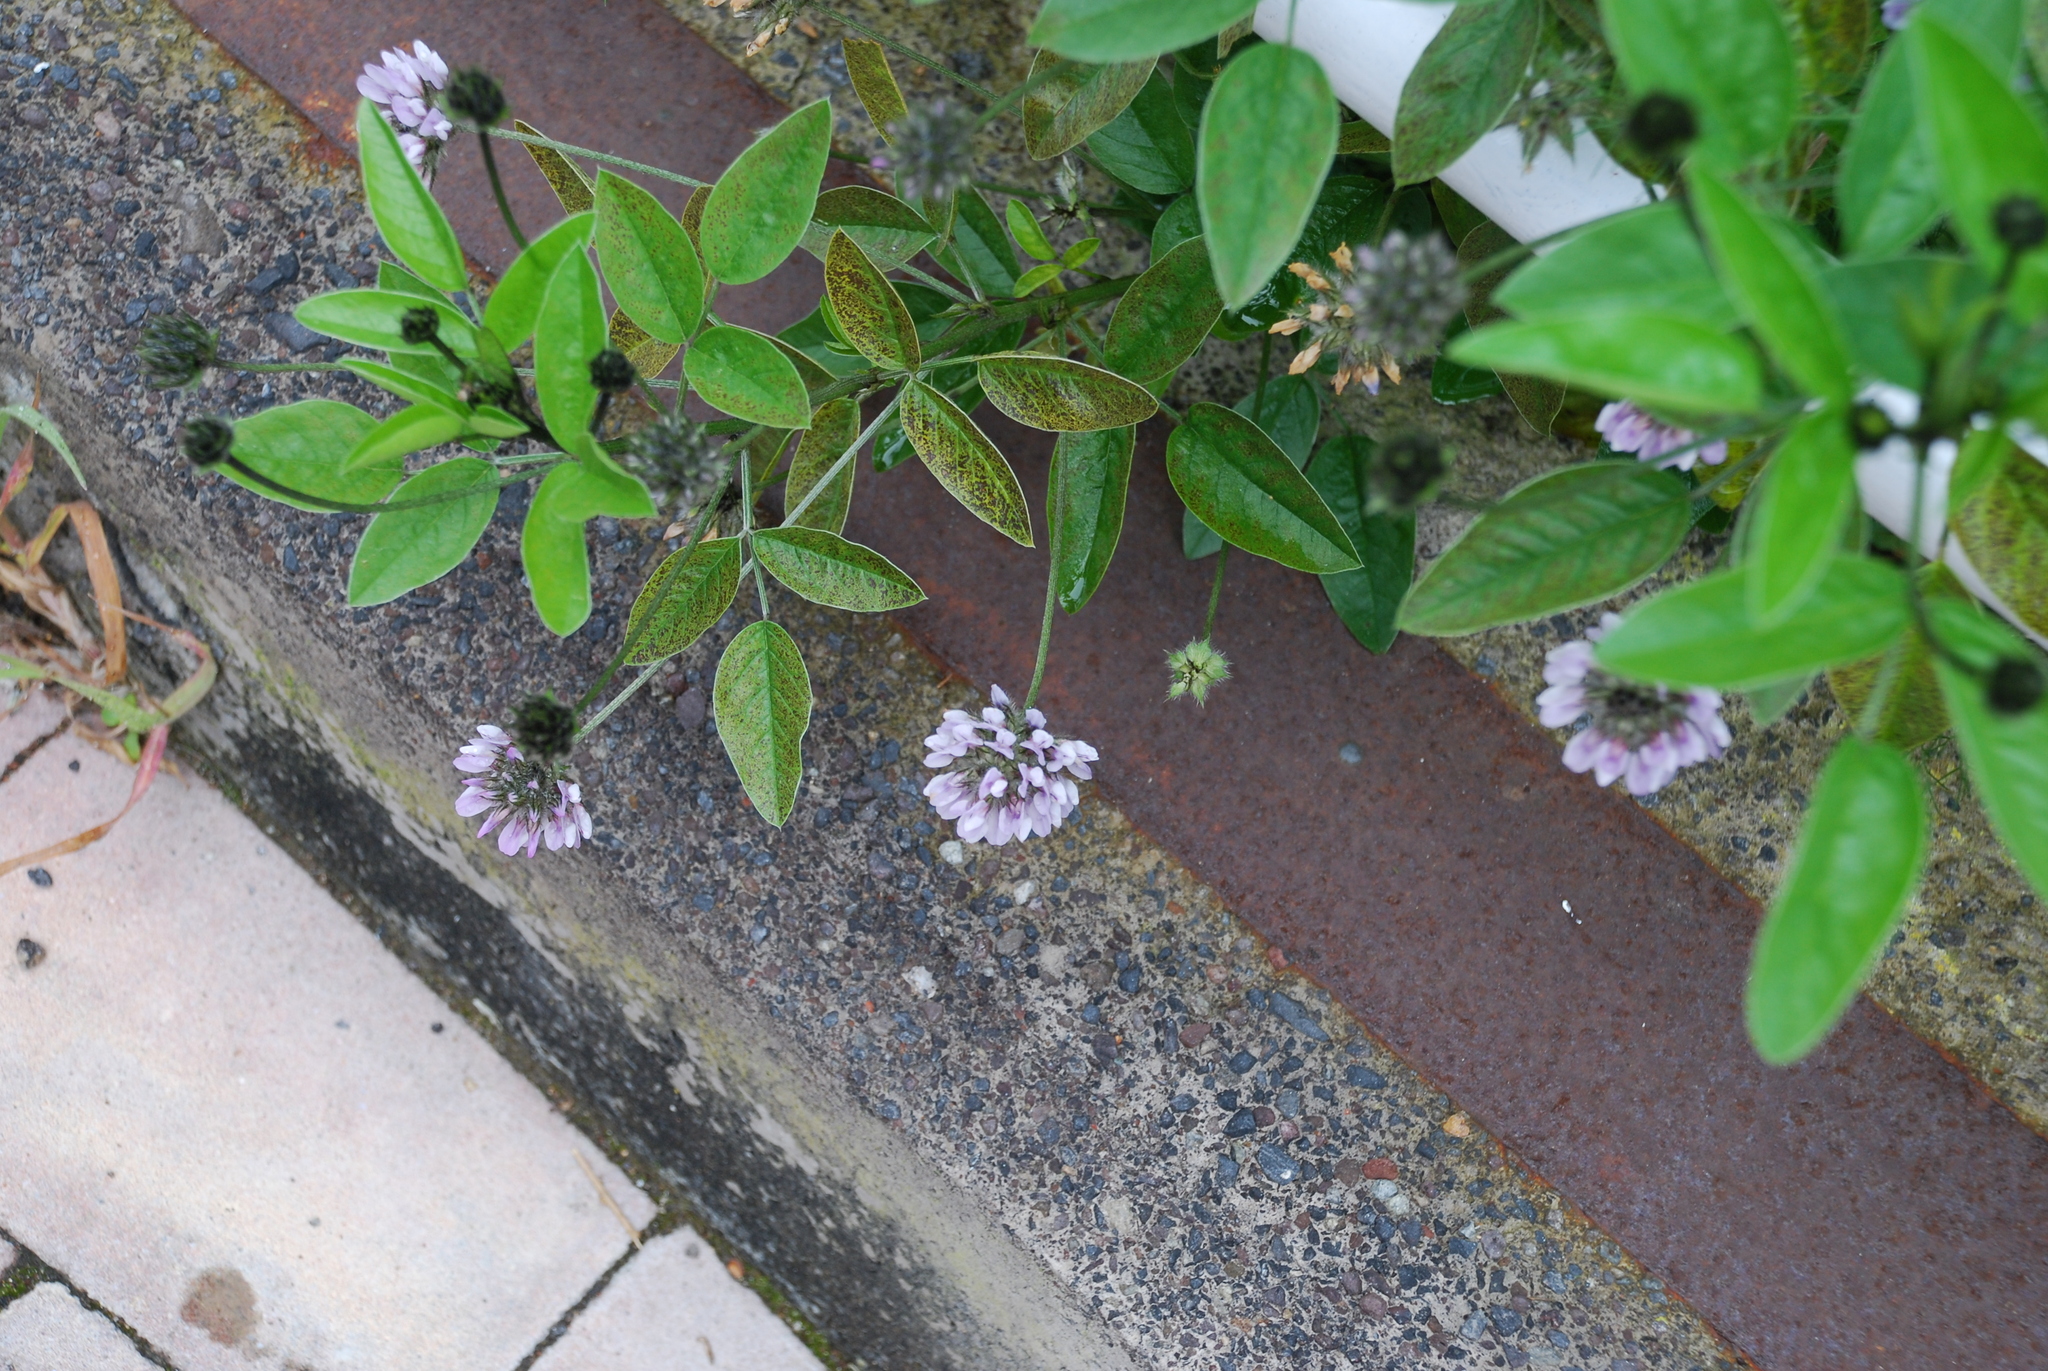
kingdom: Plantae
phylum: Tracheophyta
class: Magnoliopsida
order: Fabales
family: Fabaceae
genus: Bituminaria
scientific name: Bituminaria bituminosa
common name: Arabian pea
